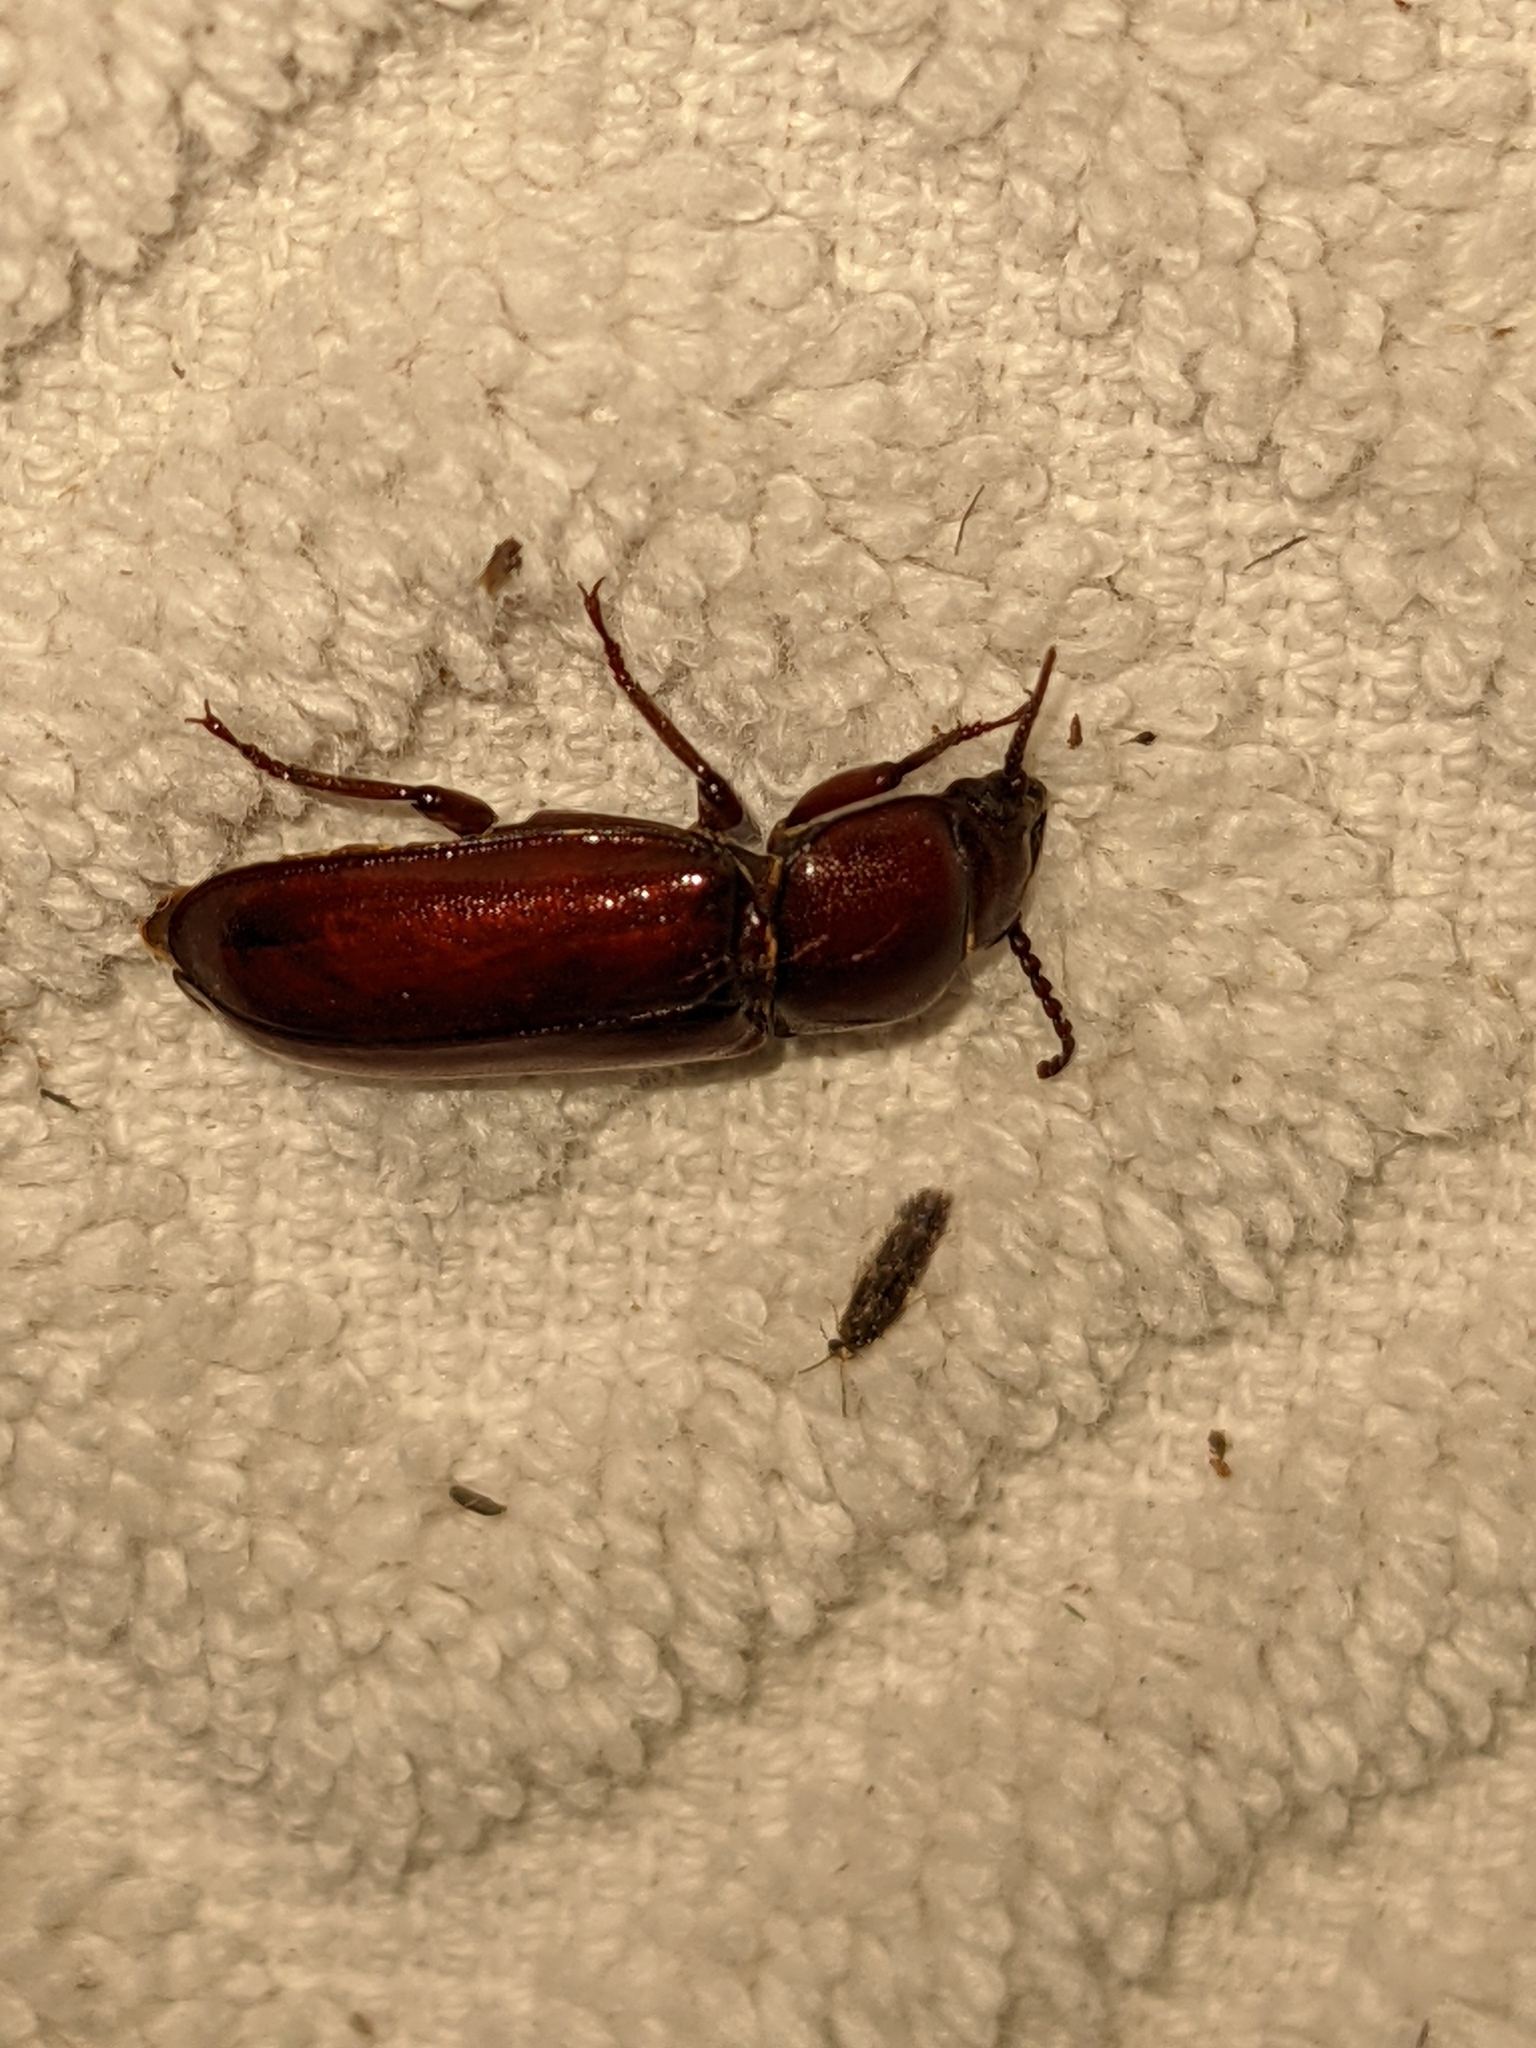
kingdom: Animalia
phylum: Arthropoda
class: Insecta
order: Coleoptera
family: Cerambycidae
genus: Neandra
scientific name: Neandra brunnea
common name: Pole borer
